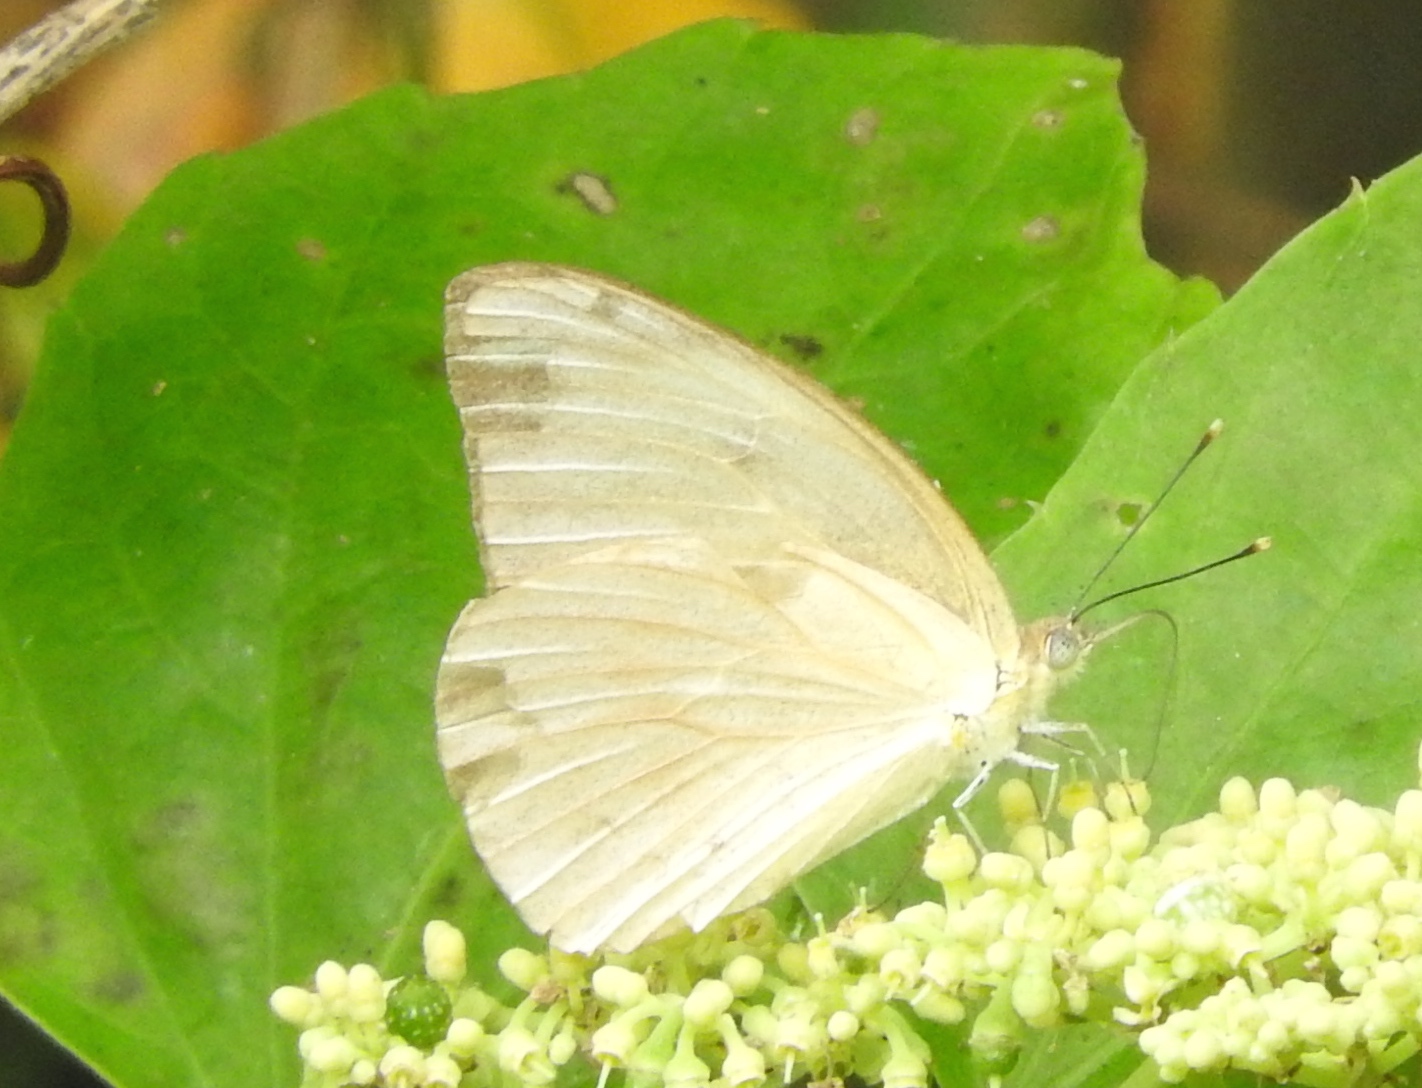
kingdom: Animalia
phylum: Arthropoda
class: Insecta
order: Lepidoptera
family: Pieridae
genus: Ascia
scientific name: Ascia monuste
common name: Great southern white
